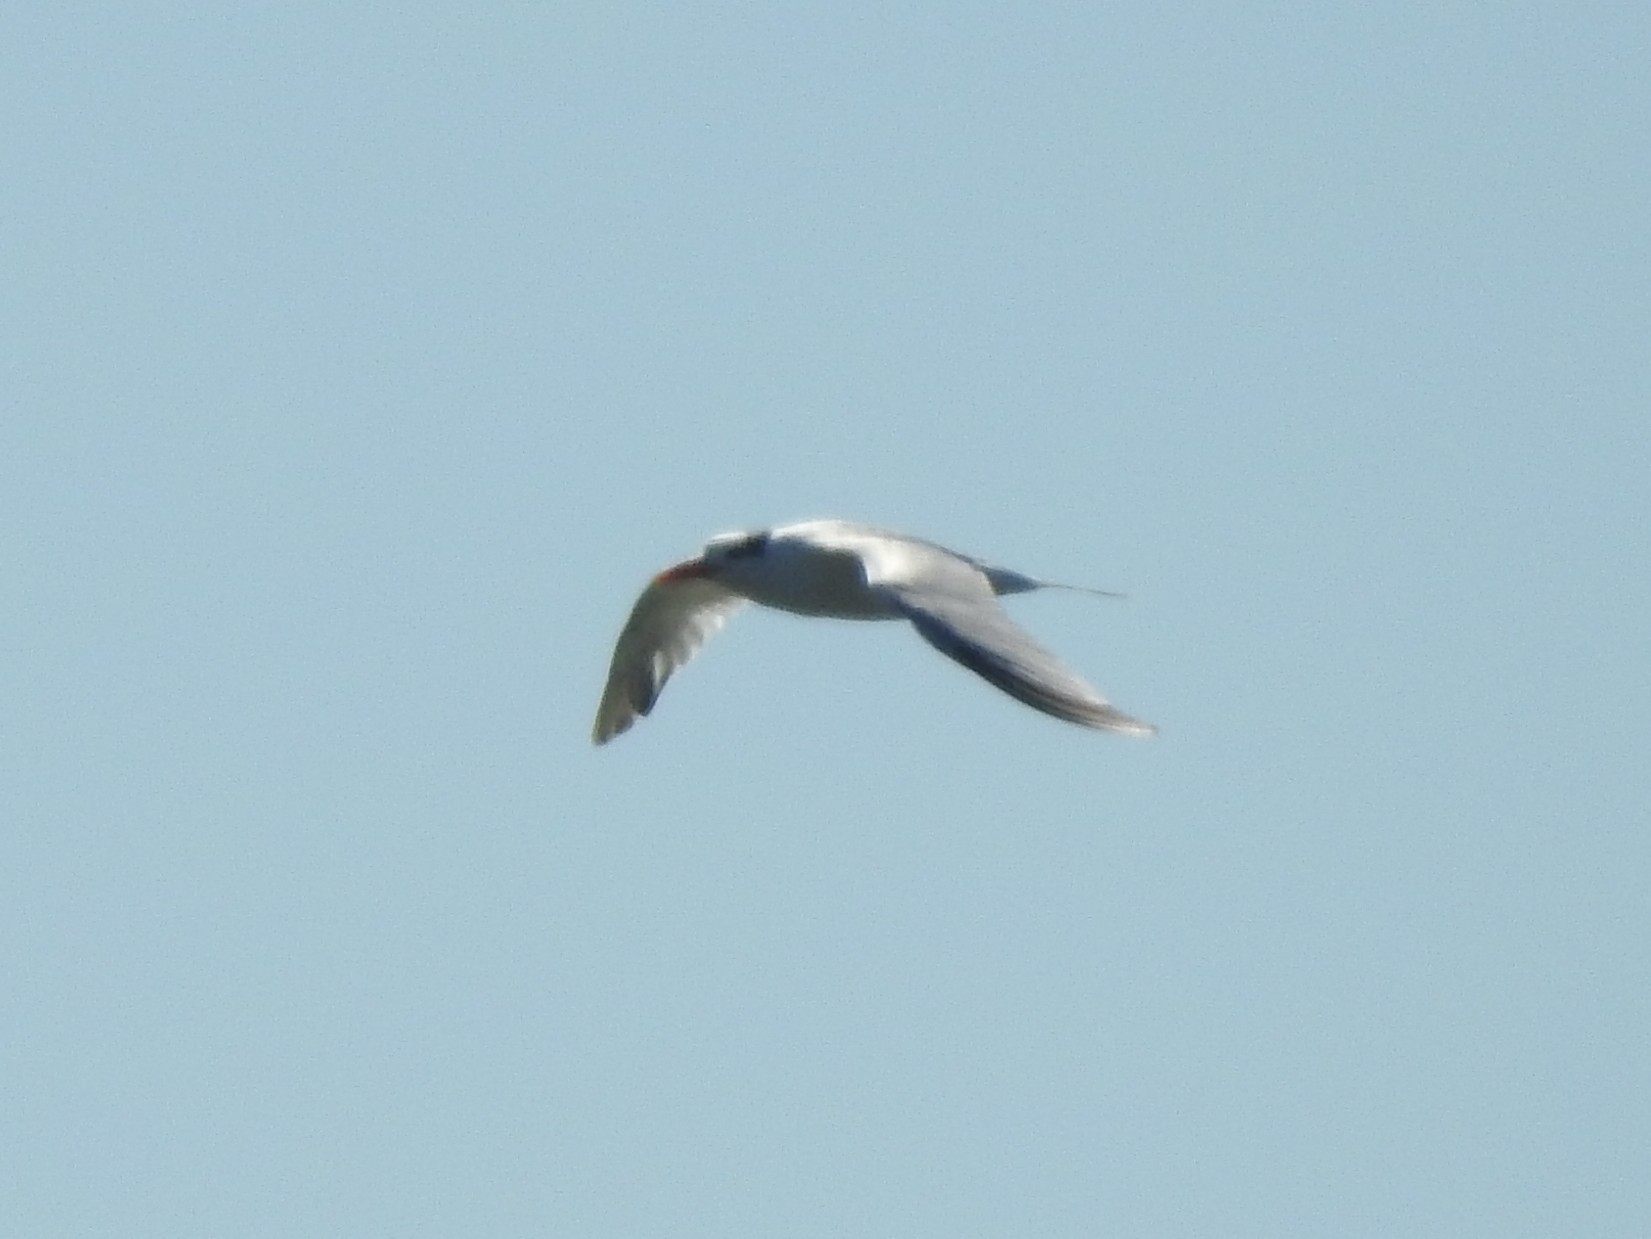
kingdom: Animalia
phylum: Chordata
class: Aves
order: Charadriiformes
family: Laridae
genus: Thalasseus
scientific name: Thalasseus maximus
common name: Royal tern
